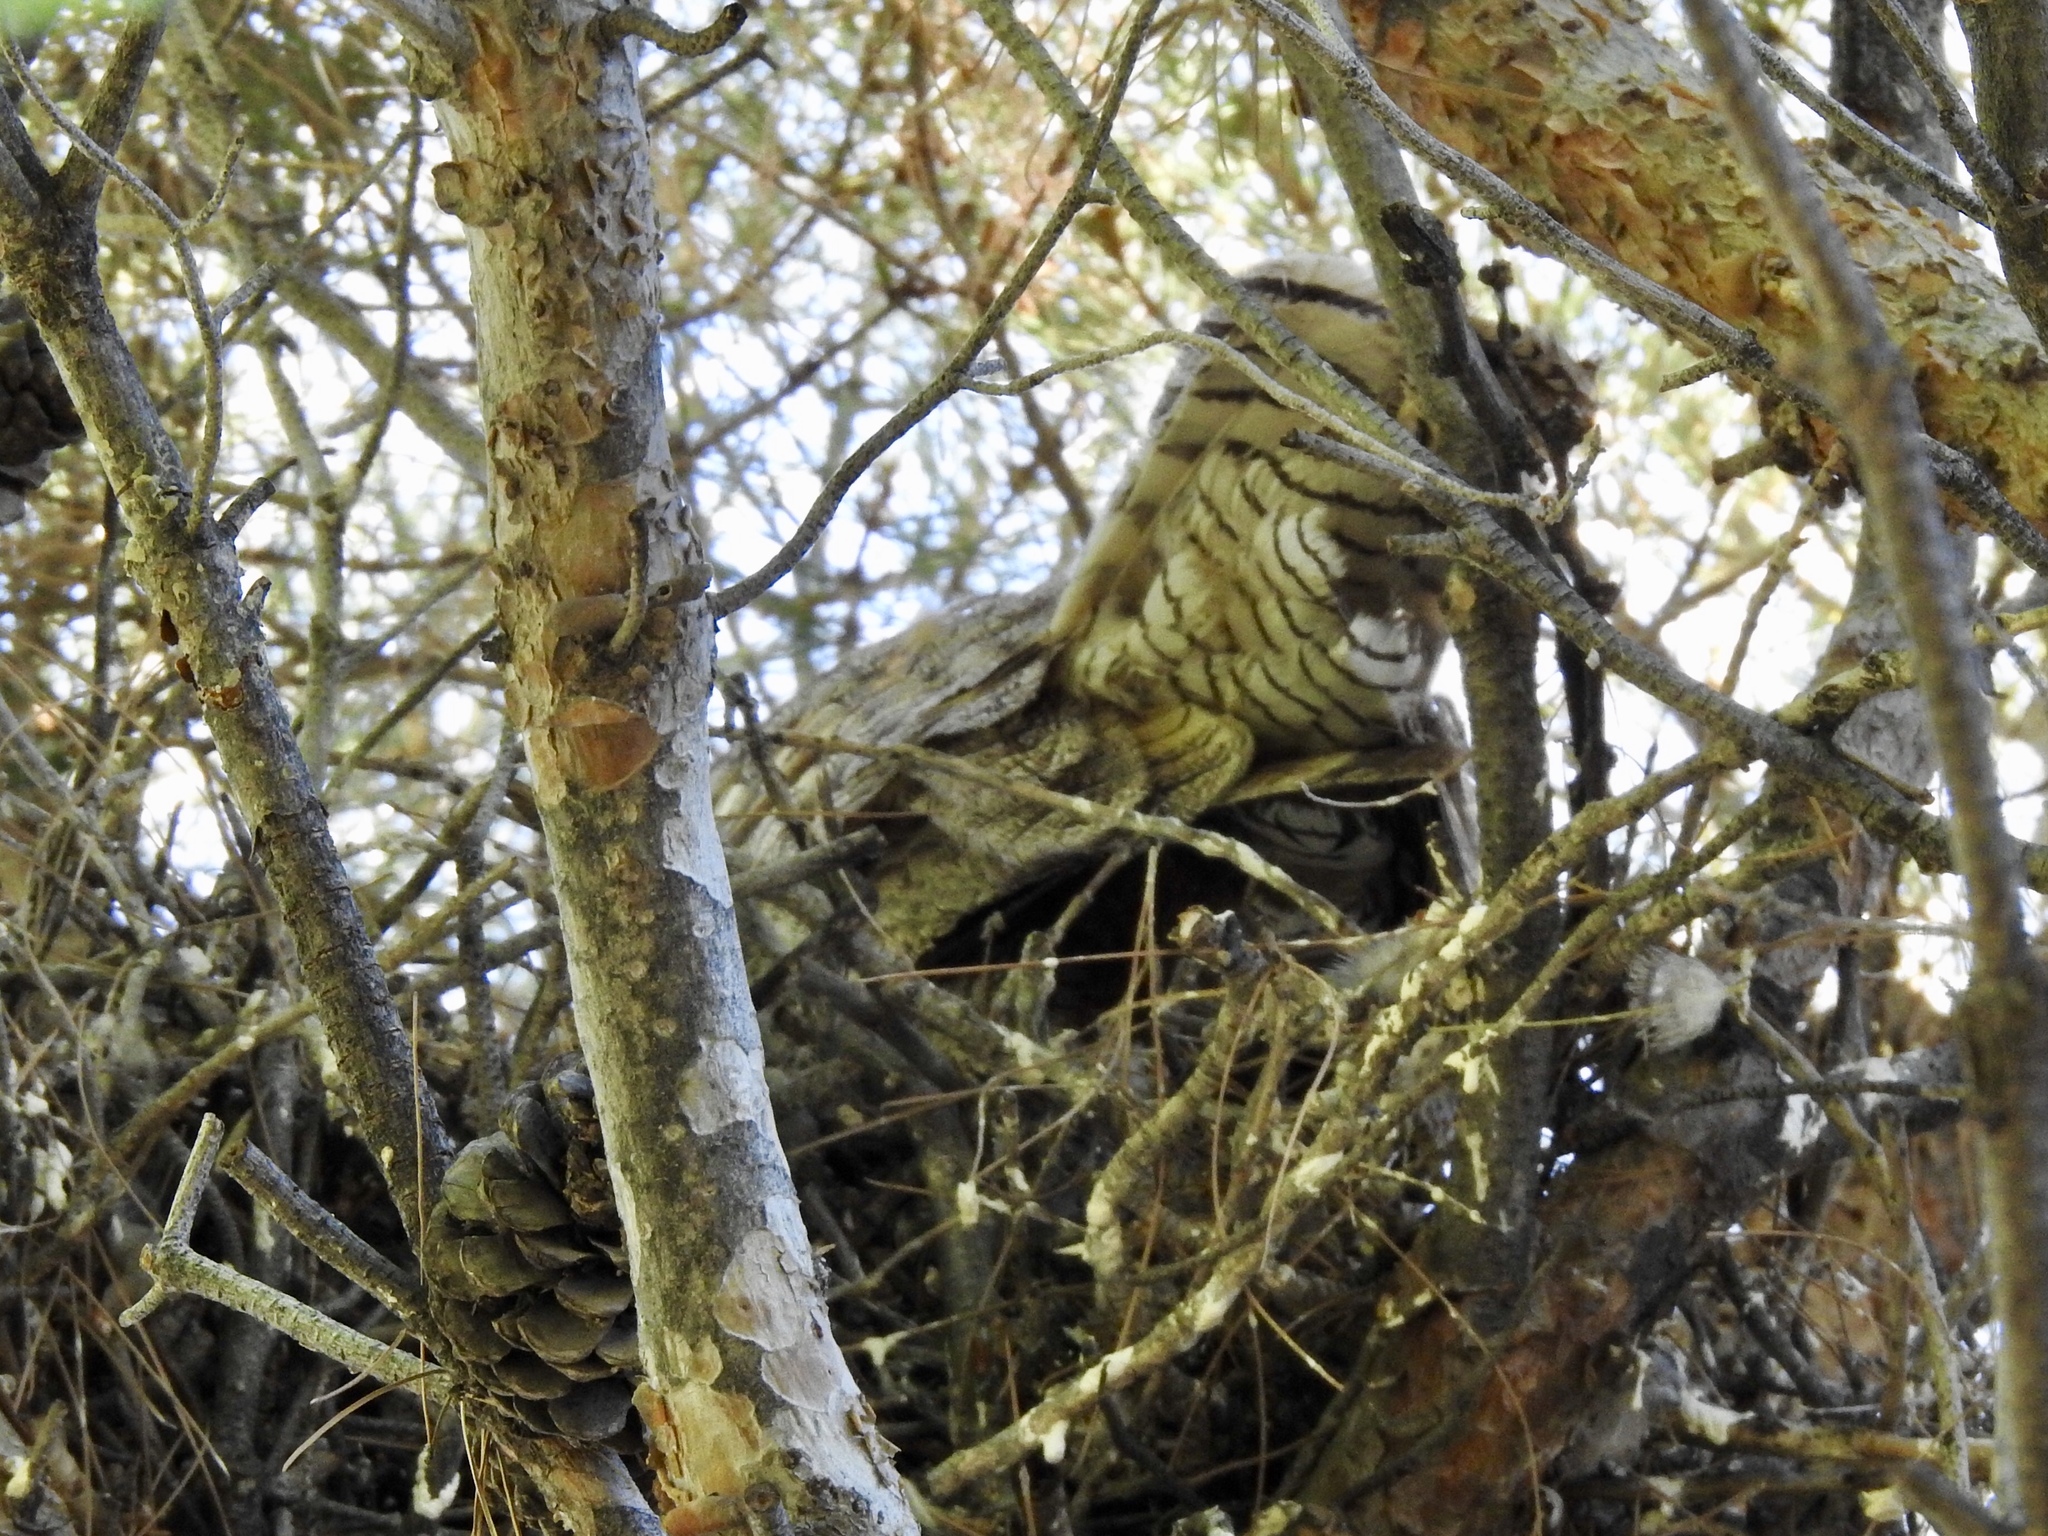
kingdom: Animalia
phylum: Chordata
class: Aves
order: Strigiformes
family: Strigidae
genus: Bubo
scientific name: Bubo virginianus
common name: Great horned owl
